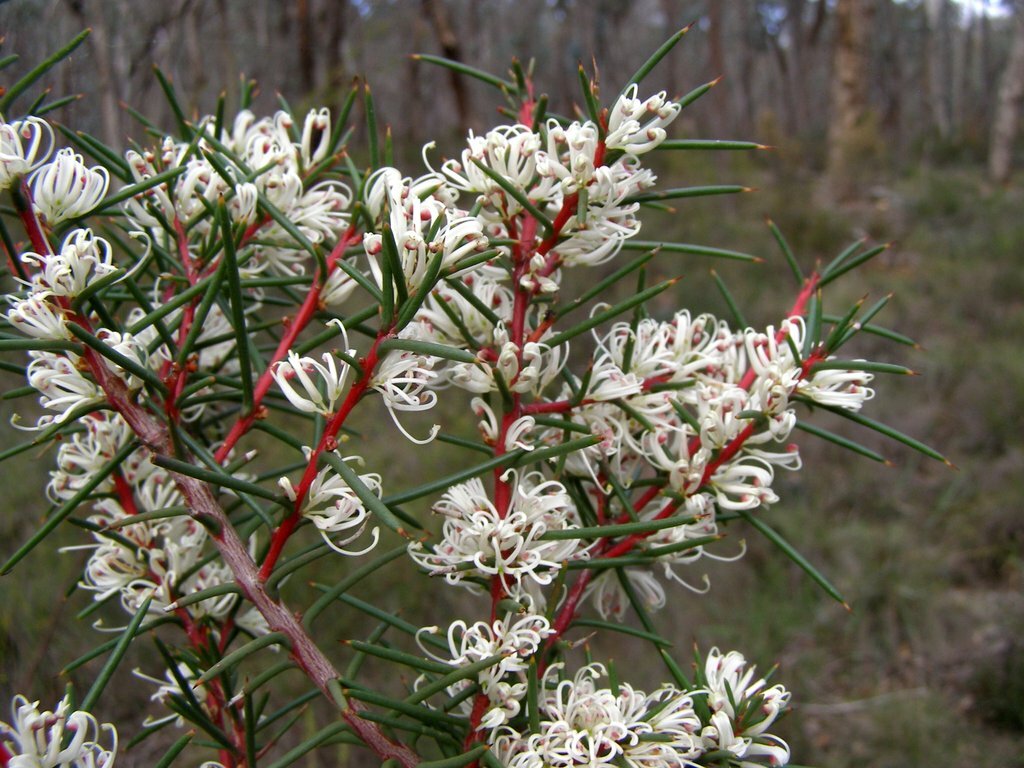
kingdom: Plantae
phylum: Tracheophyta
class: Magnoliopsida
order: Proteales
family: Proteaceae
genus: Hakea
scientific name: Hakea decurrens
